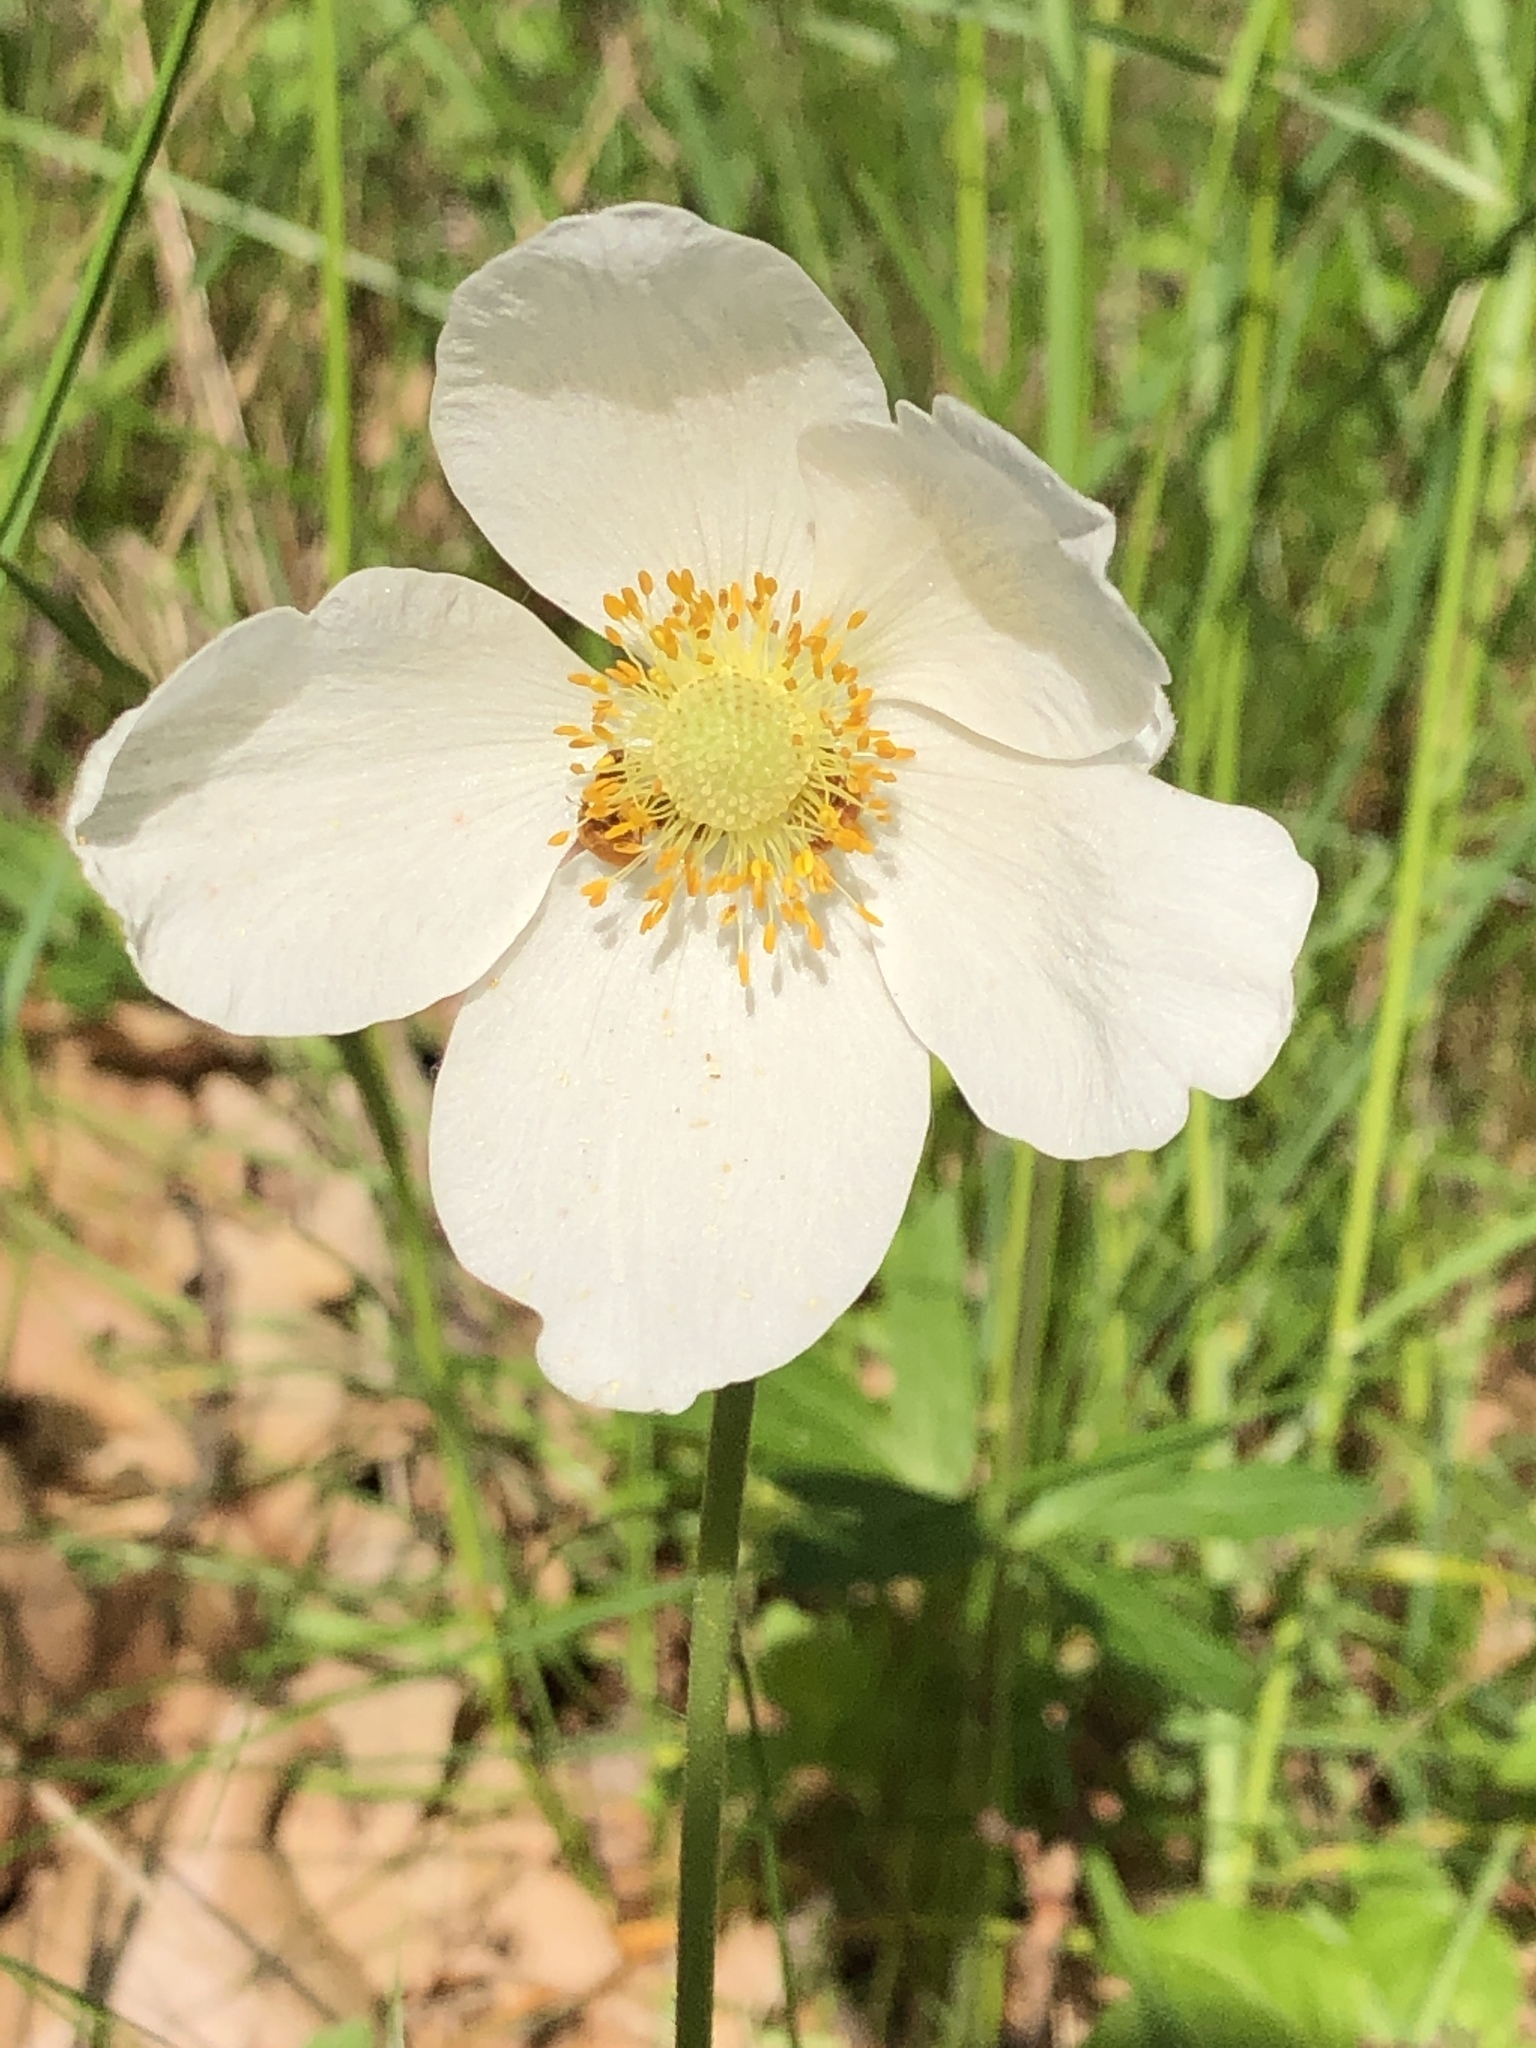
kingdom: Plantae
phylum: Tracheophyta
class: Magnoliopsida
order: Ranunculales
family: Ranunculaceae
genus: Anemone
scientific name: Anemone sylvestris
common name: Snowdrop anemone
